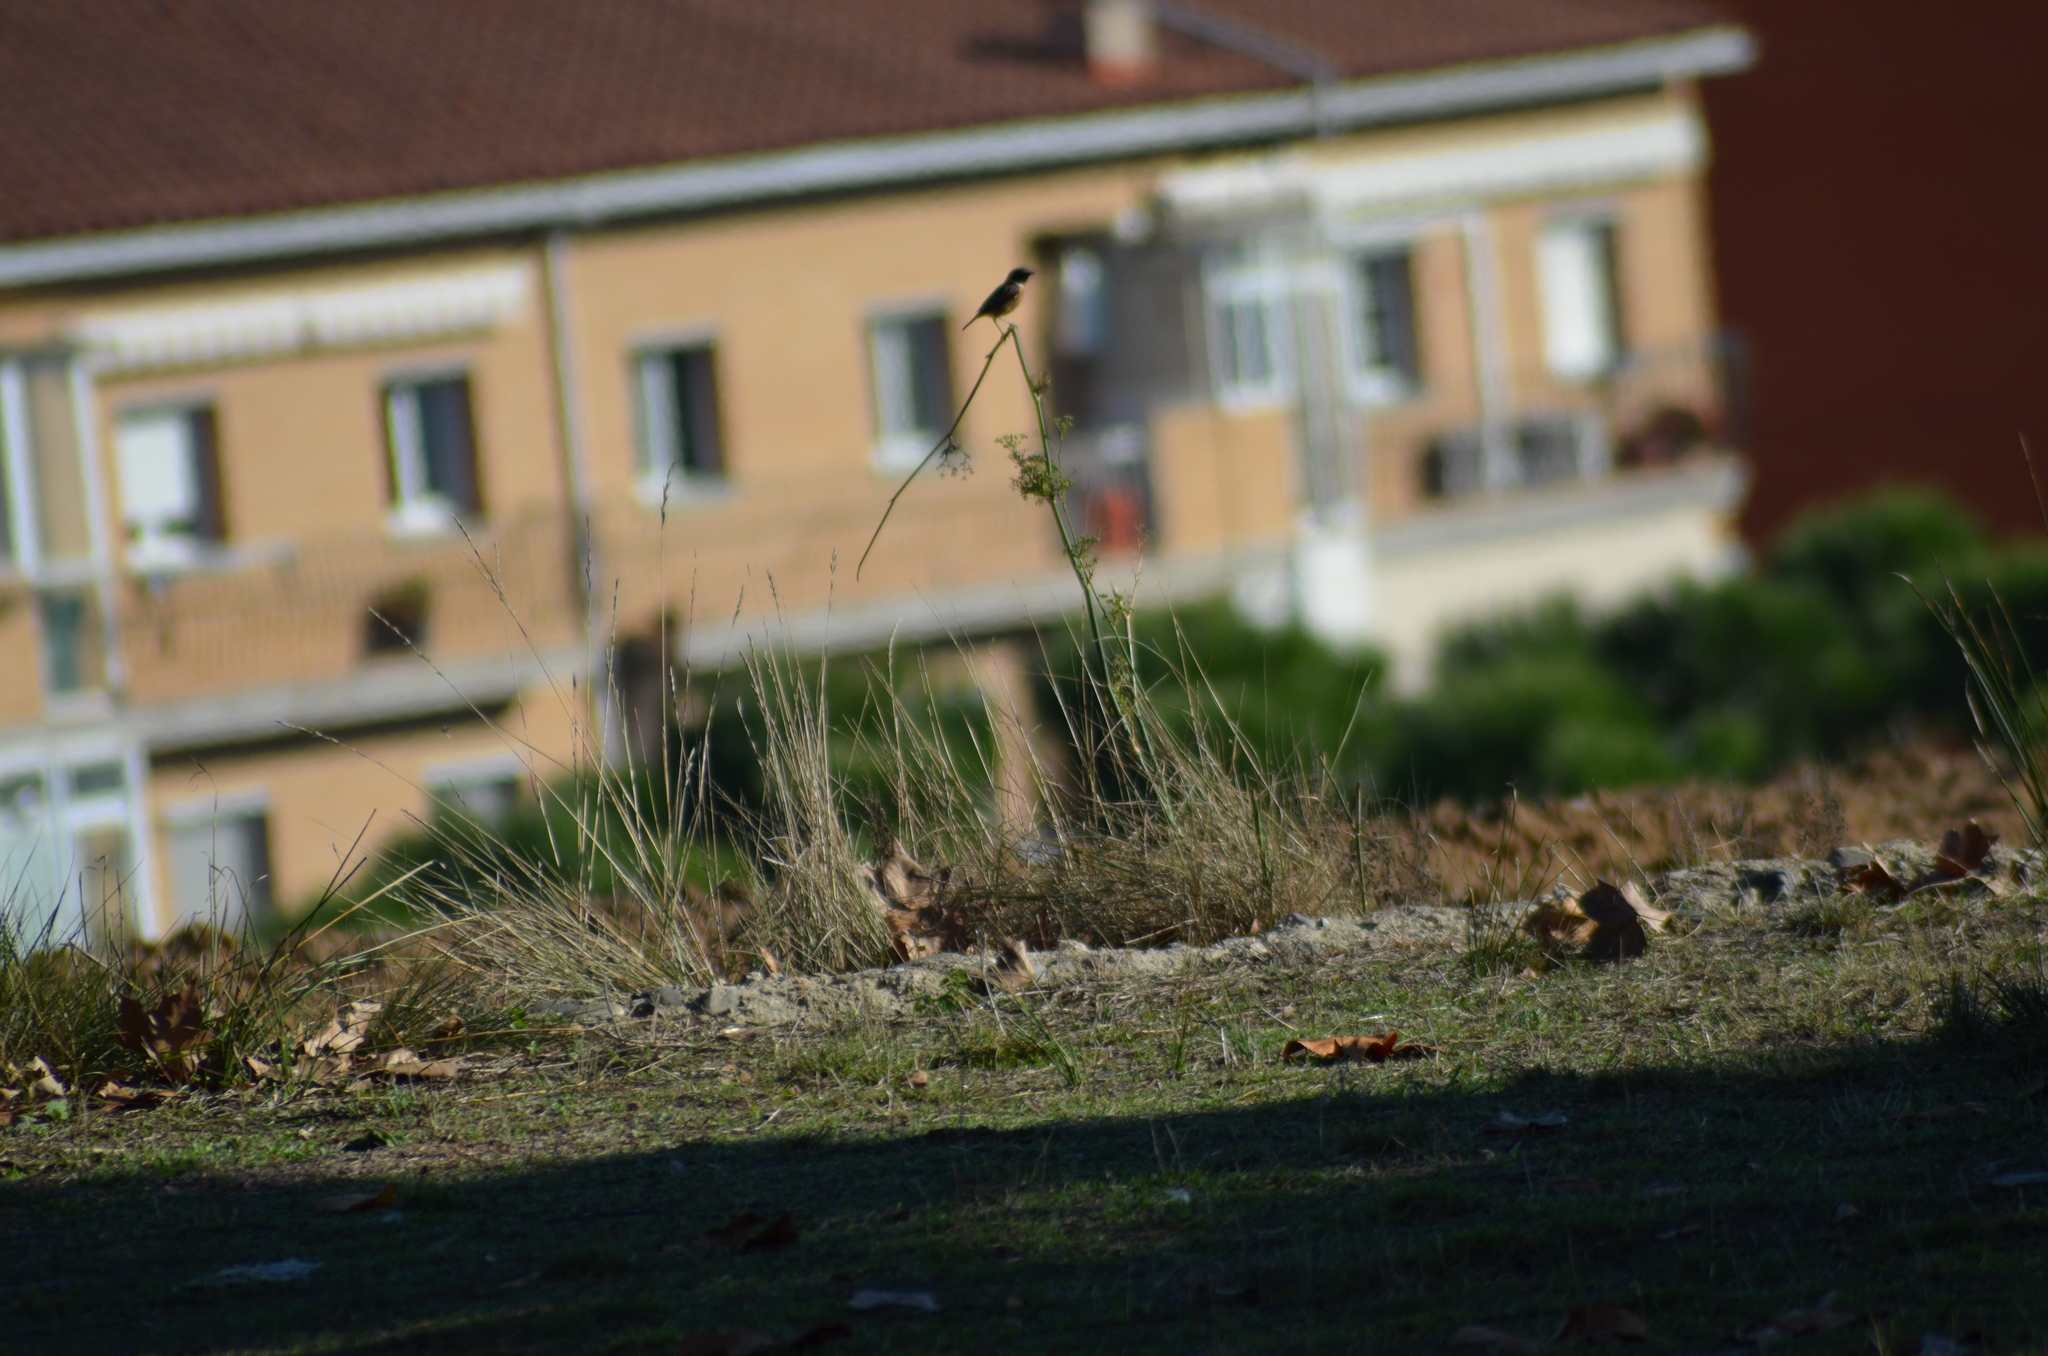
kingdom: Animalia
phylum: Chordata
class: Aves
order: Passeriformes
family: Muscicapidae
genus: Saxicola
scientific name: Saxicola rubicola
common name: European stonechat
